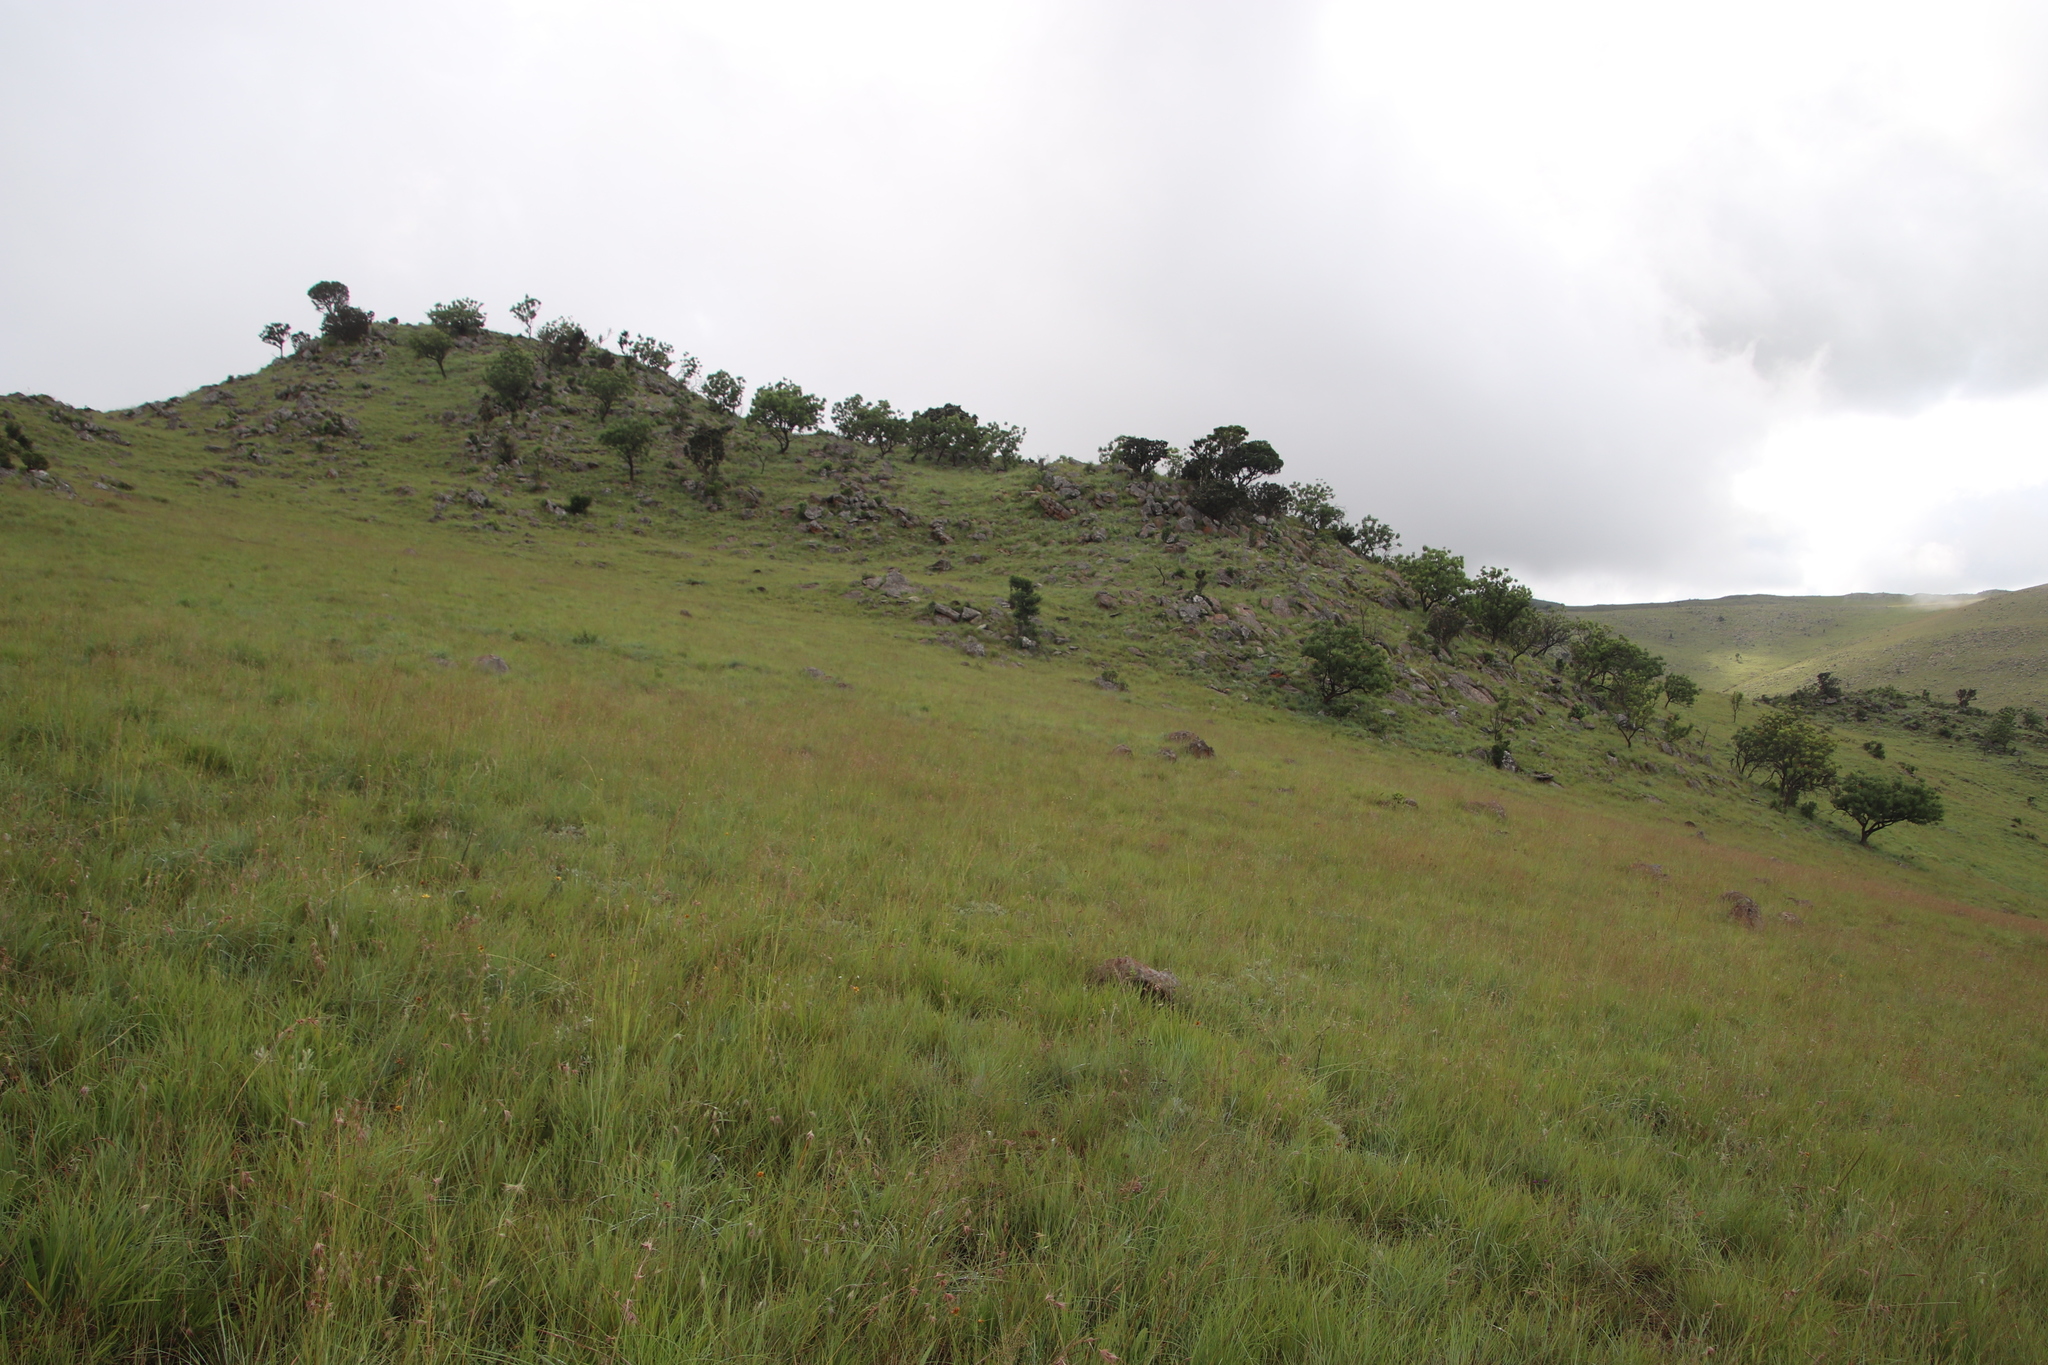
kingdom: Plantae
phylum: Tracheophyta
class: Magnoliopsida
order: Proteales
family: Proteaceae
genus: Protea
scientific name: Protea caffra
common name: Common sugarbush
